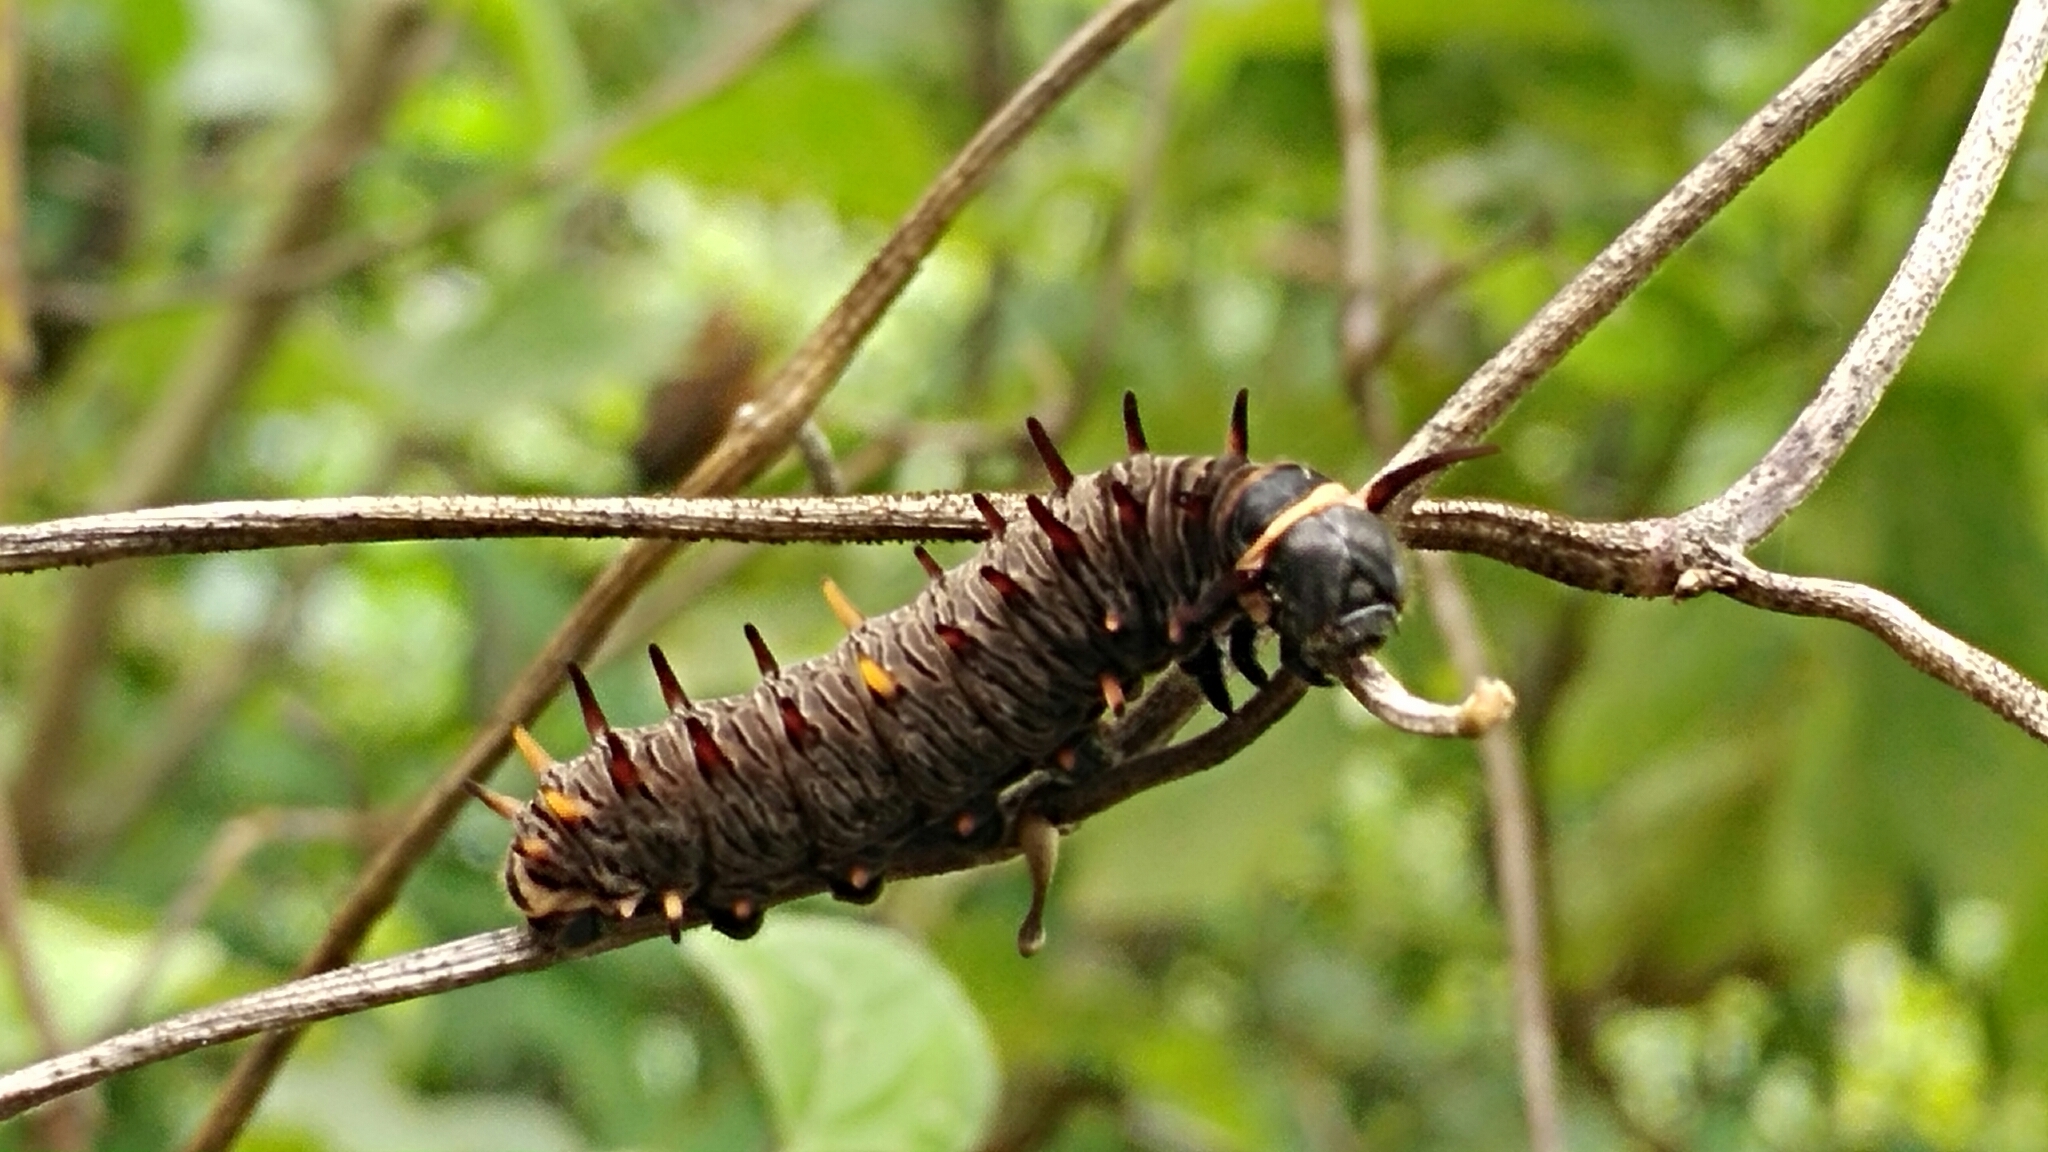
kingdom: Animalia
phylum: Arthropoda
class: Insecta
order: Lepidoptera
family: Papilionidae
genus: Battus
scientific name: Battus polydamas
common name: Polydamas swallowtail
